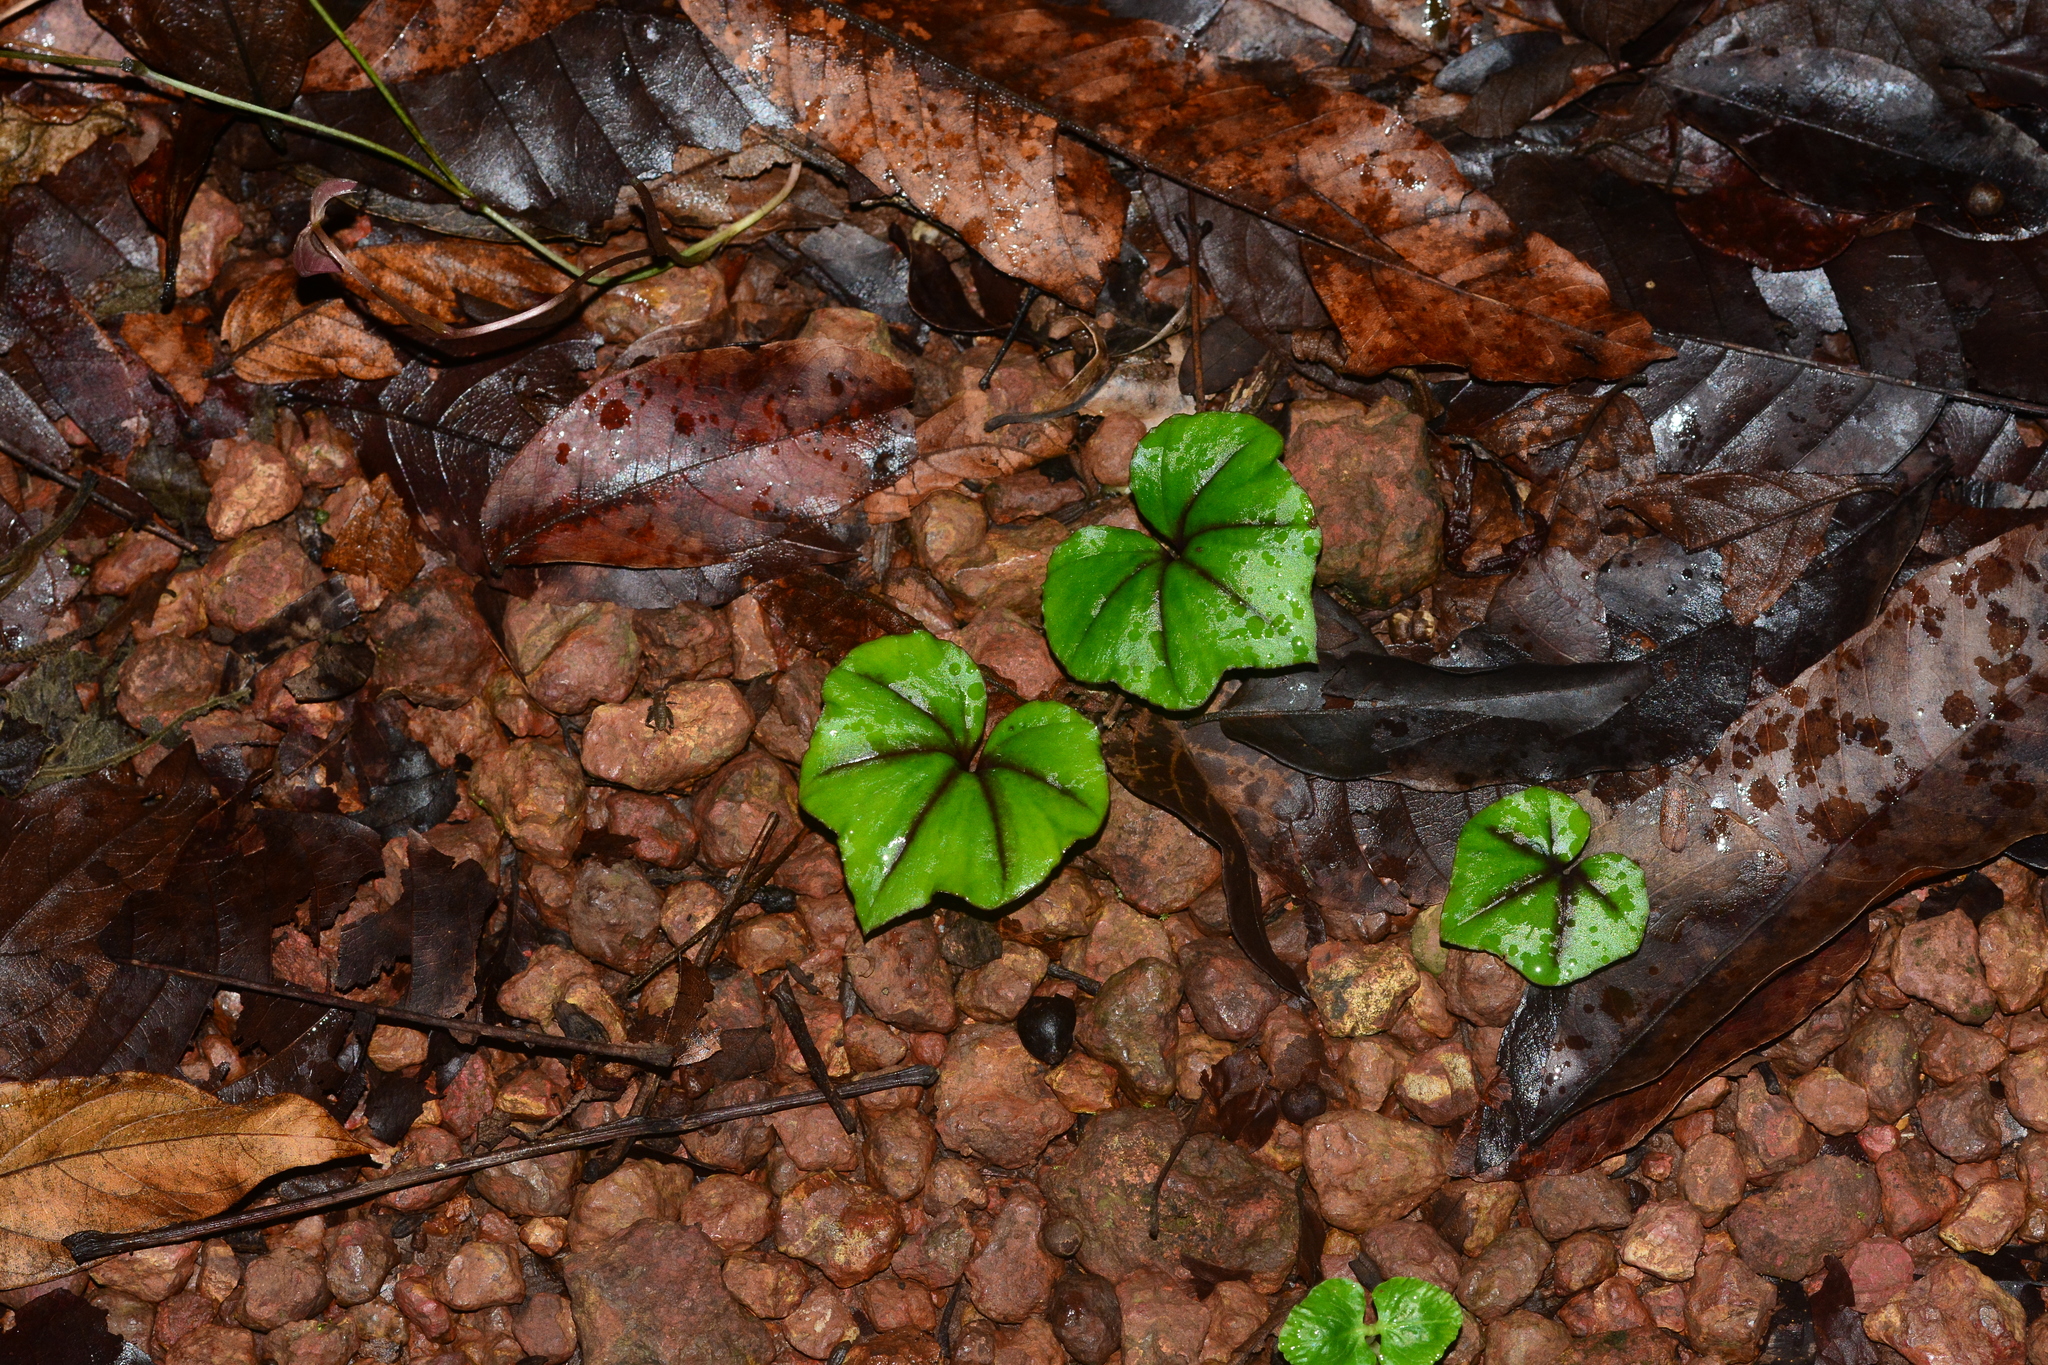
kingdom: Plantae
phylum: Tracheophyta
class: Liliopsida
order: Asparagales
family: Orchidaceae
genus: Nervilia
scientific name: Nervilia infundibulifolia
